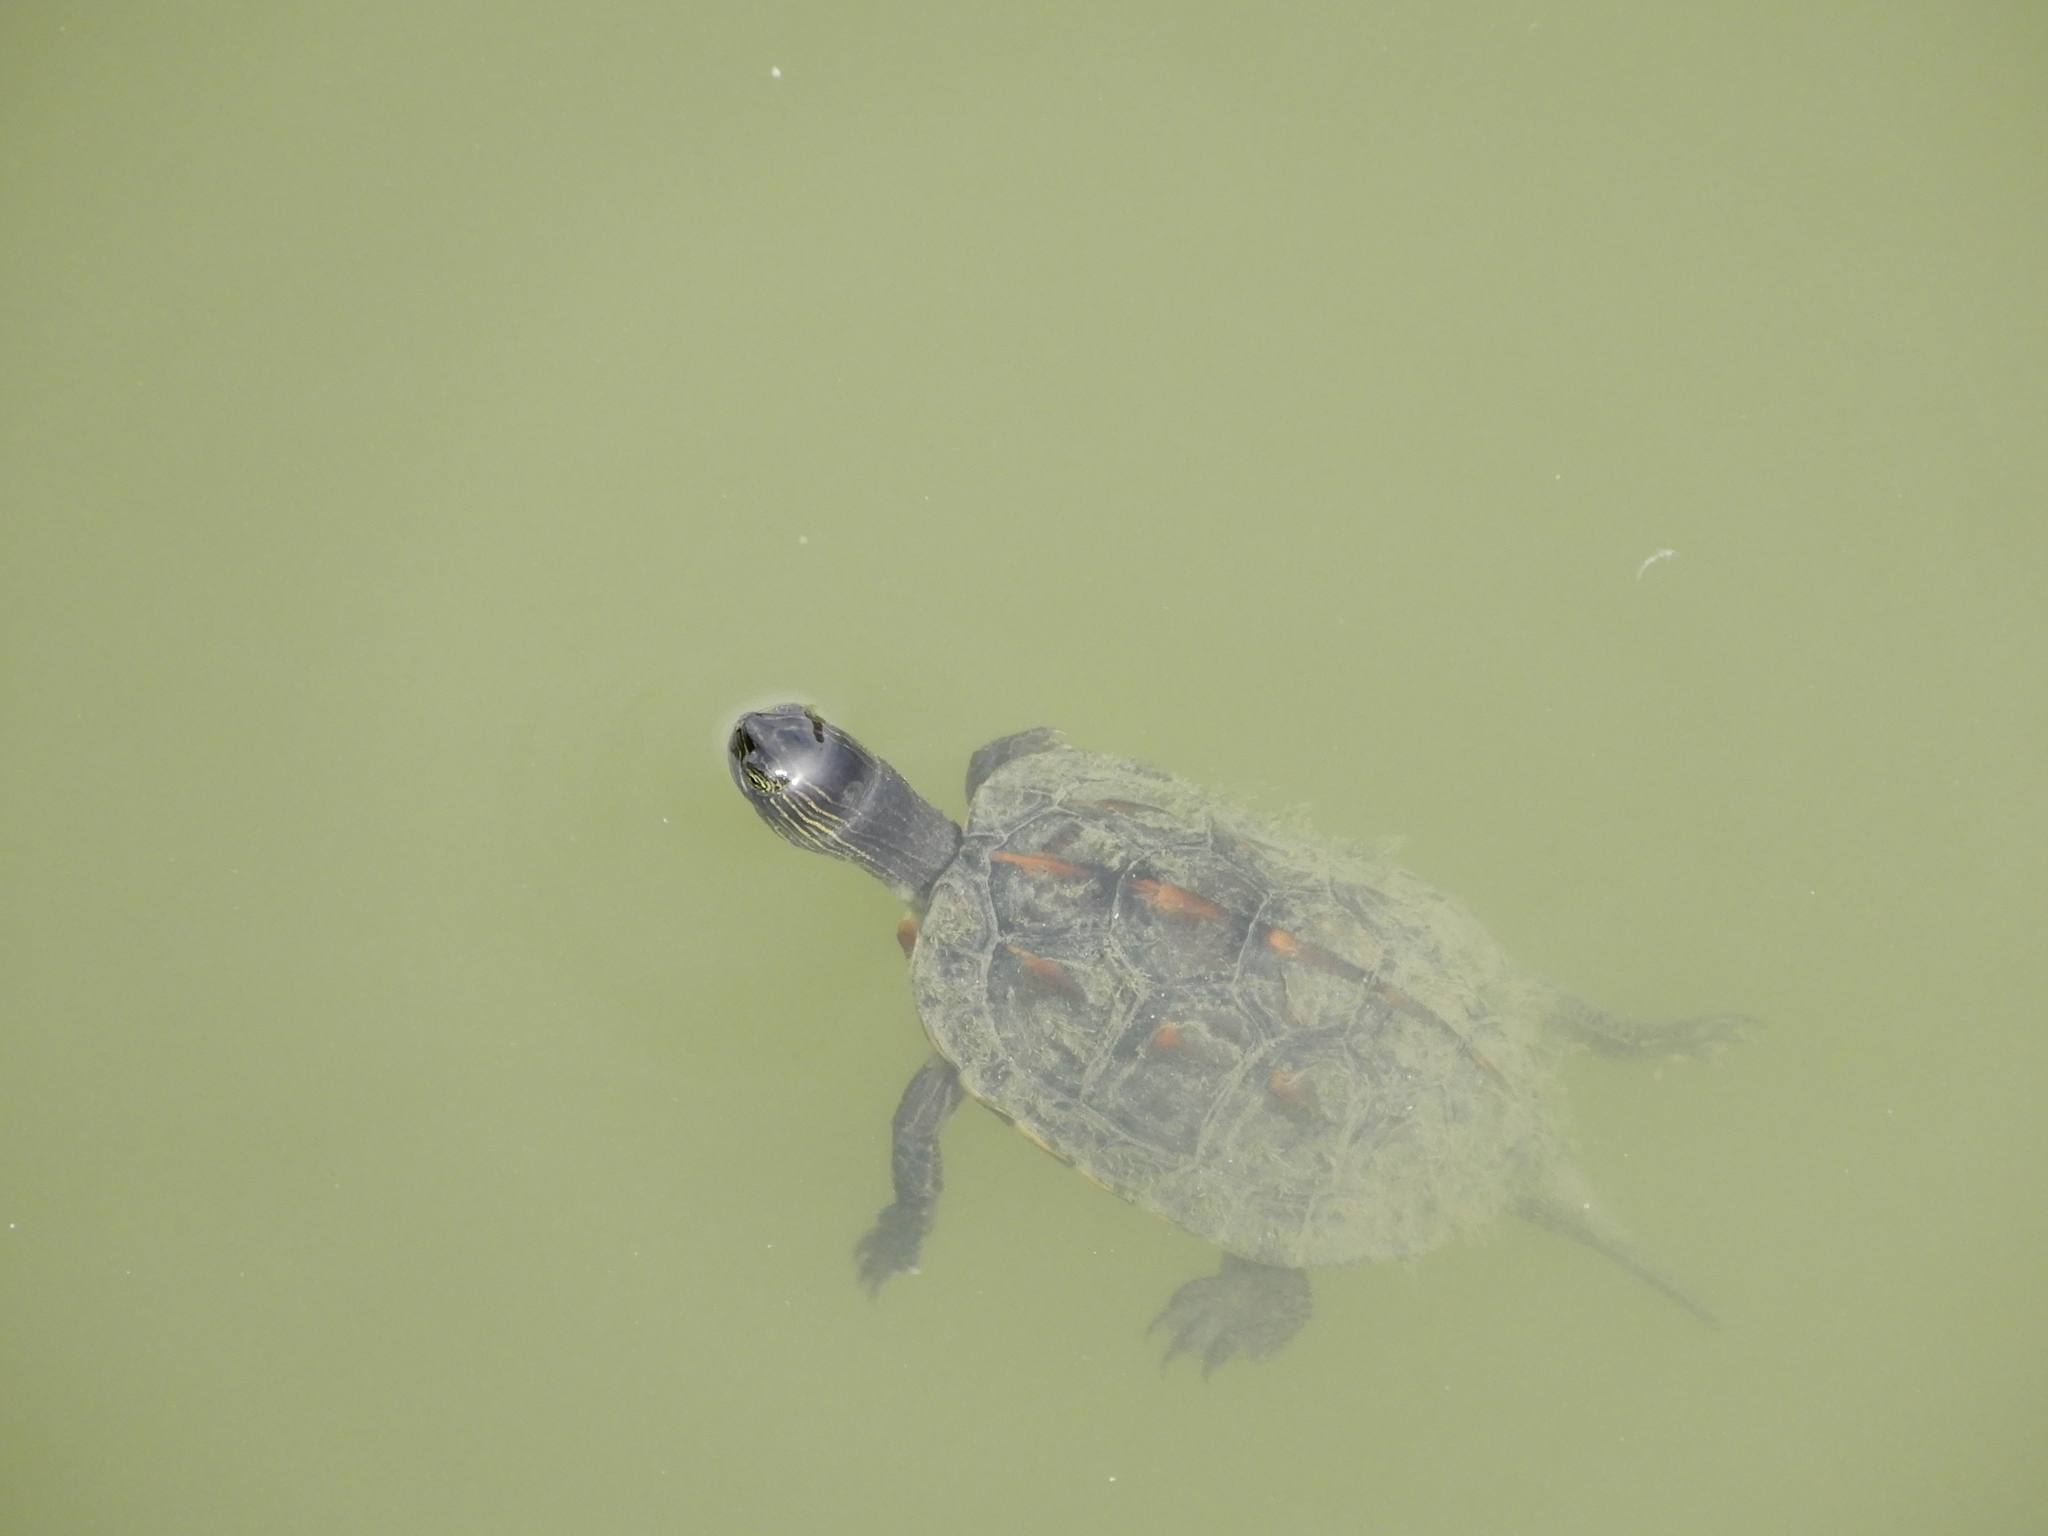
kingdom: Animalia
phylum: Chordata
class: Testudines
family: Geoemydidae
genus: Mauremys
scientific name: Mauremys sinensis
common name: Chinese stripe-necked turtle
